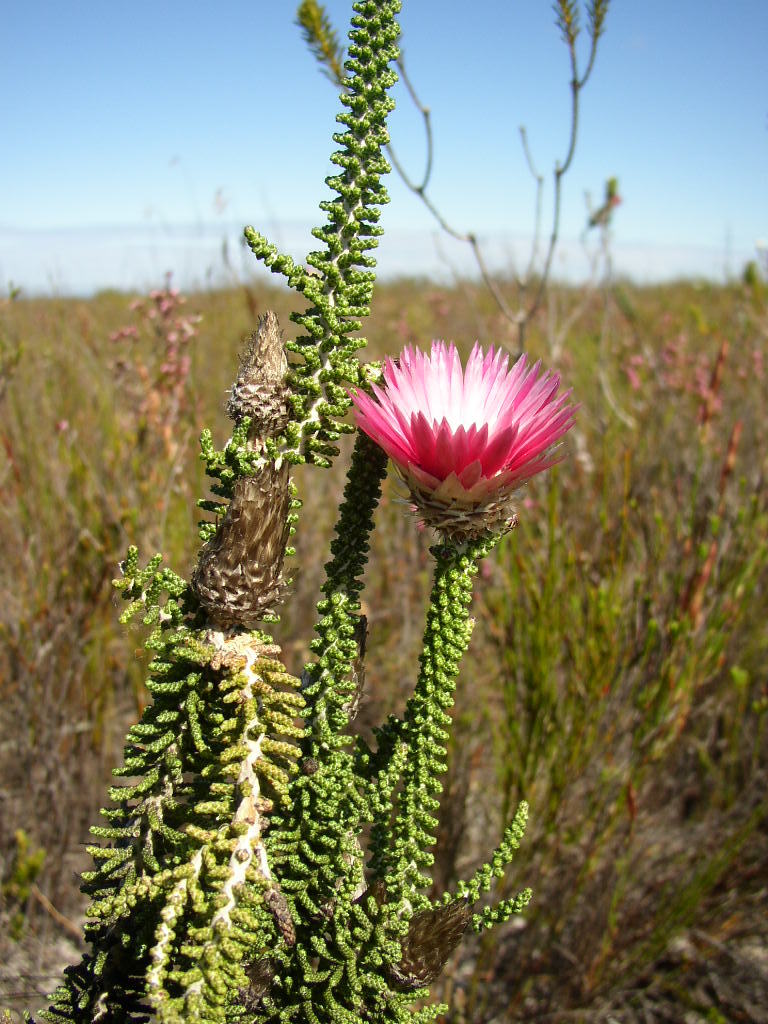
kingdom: Plantae
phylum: Tracheophyta
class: Magnoliopsida
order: Asterales
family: Asteraceae
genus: Phaenocoma
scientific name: Phaenocoma prolifera
